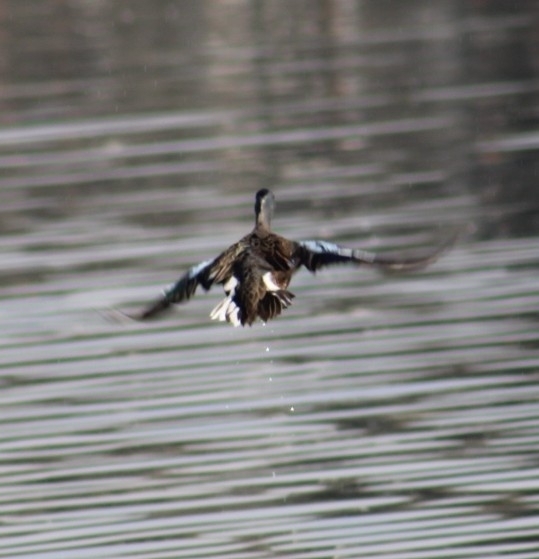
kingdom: Animalia
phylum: Chordata
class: Aves
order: Anseriformes
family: Anatidae
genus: Spatula
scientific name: Spatula discors
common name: Blue-winged teal
